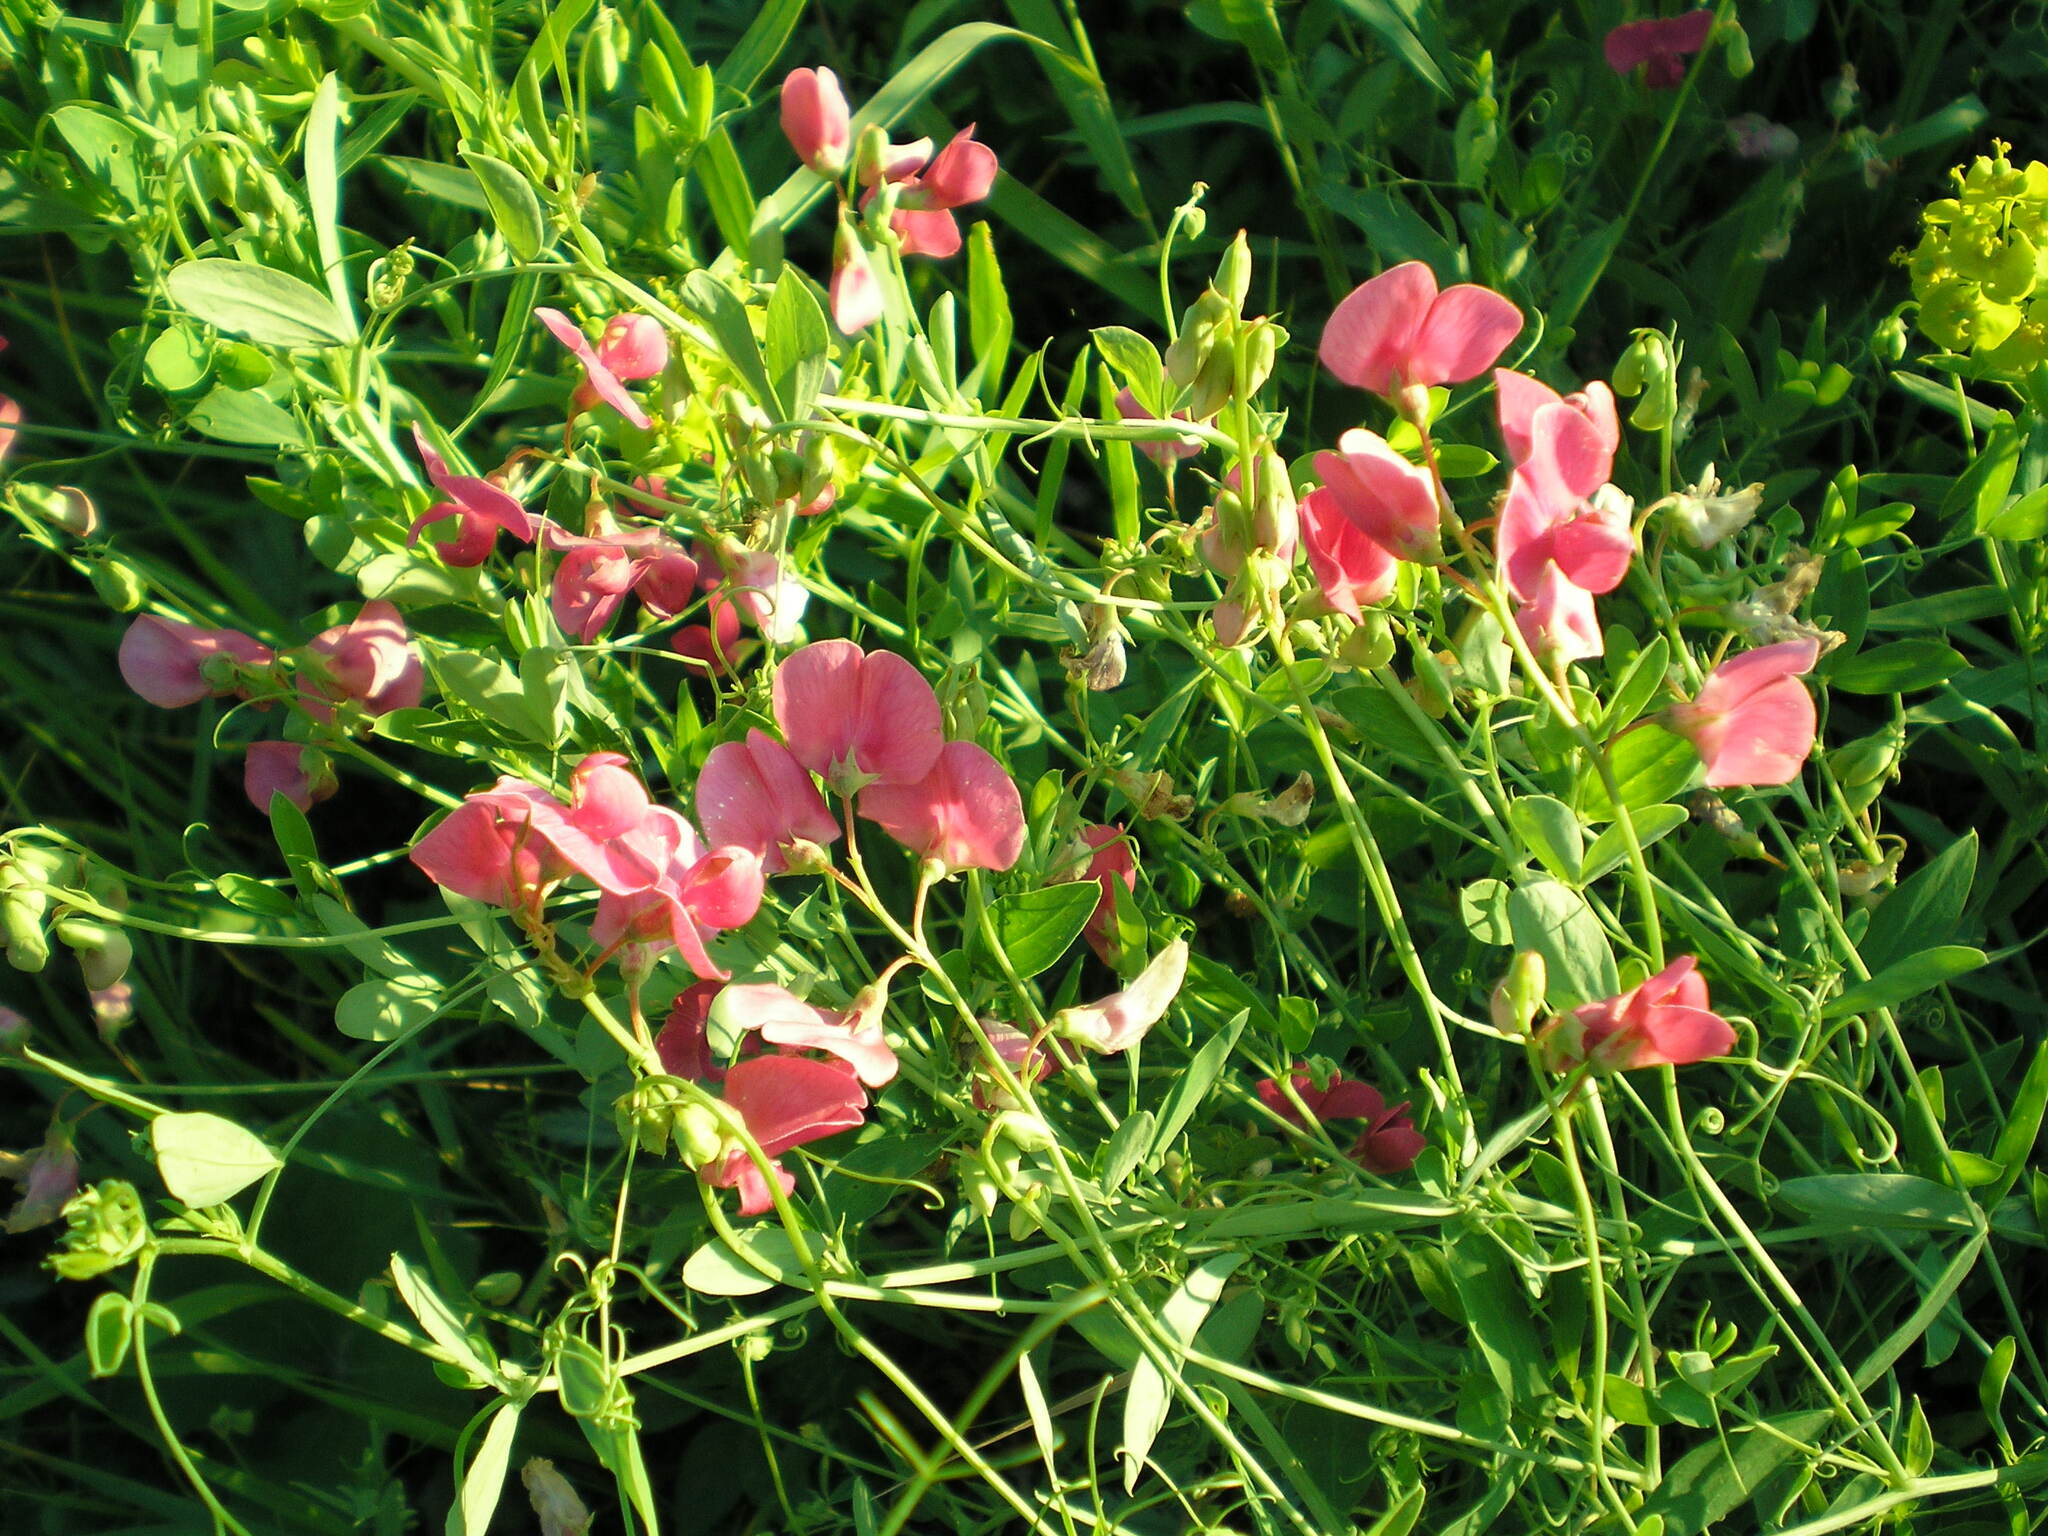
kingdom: Plantae
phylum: Tracheophyta
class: Magnoliopsida
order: Fabales
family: Fabaceae
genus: Lathyrus
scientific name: Lathyrus tuberosus
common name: Tuberous pea
